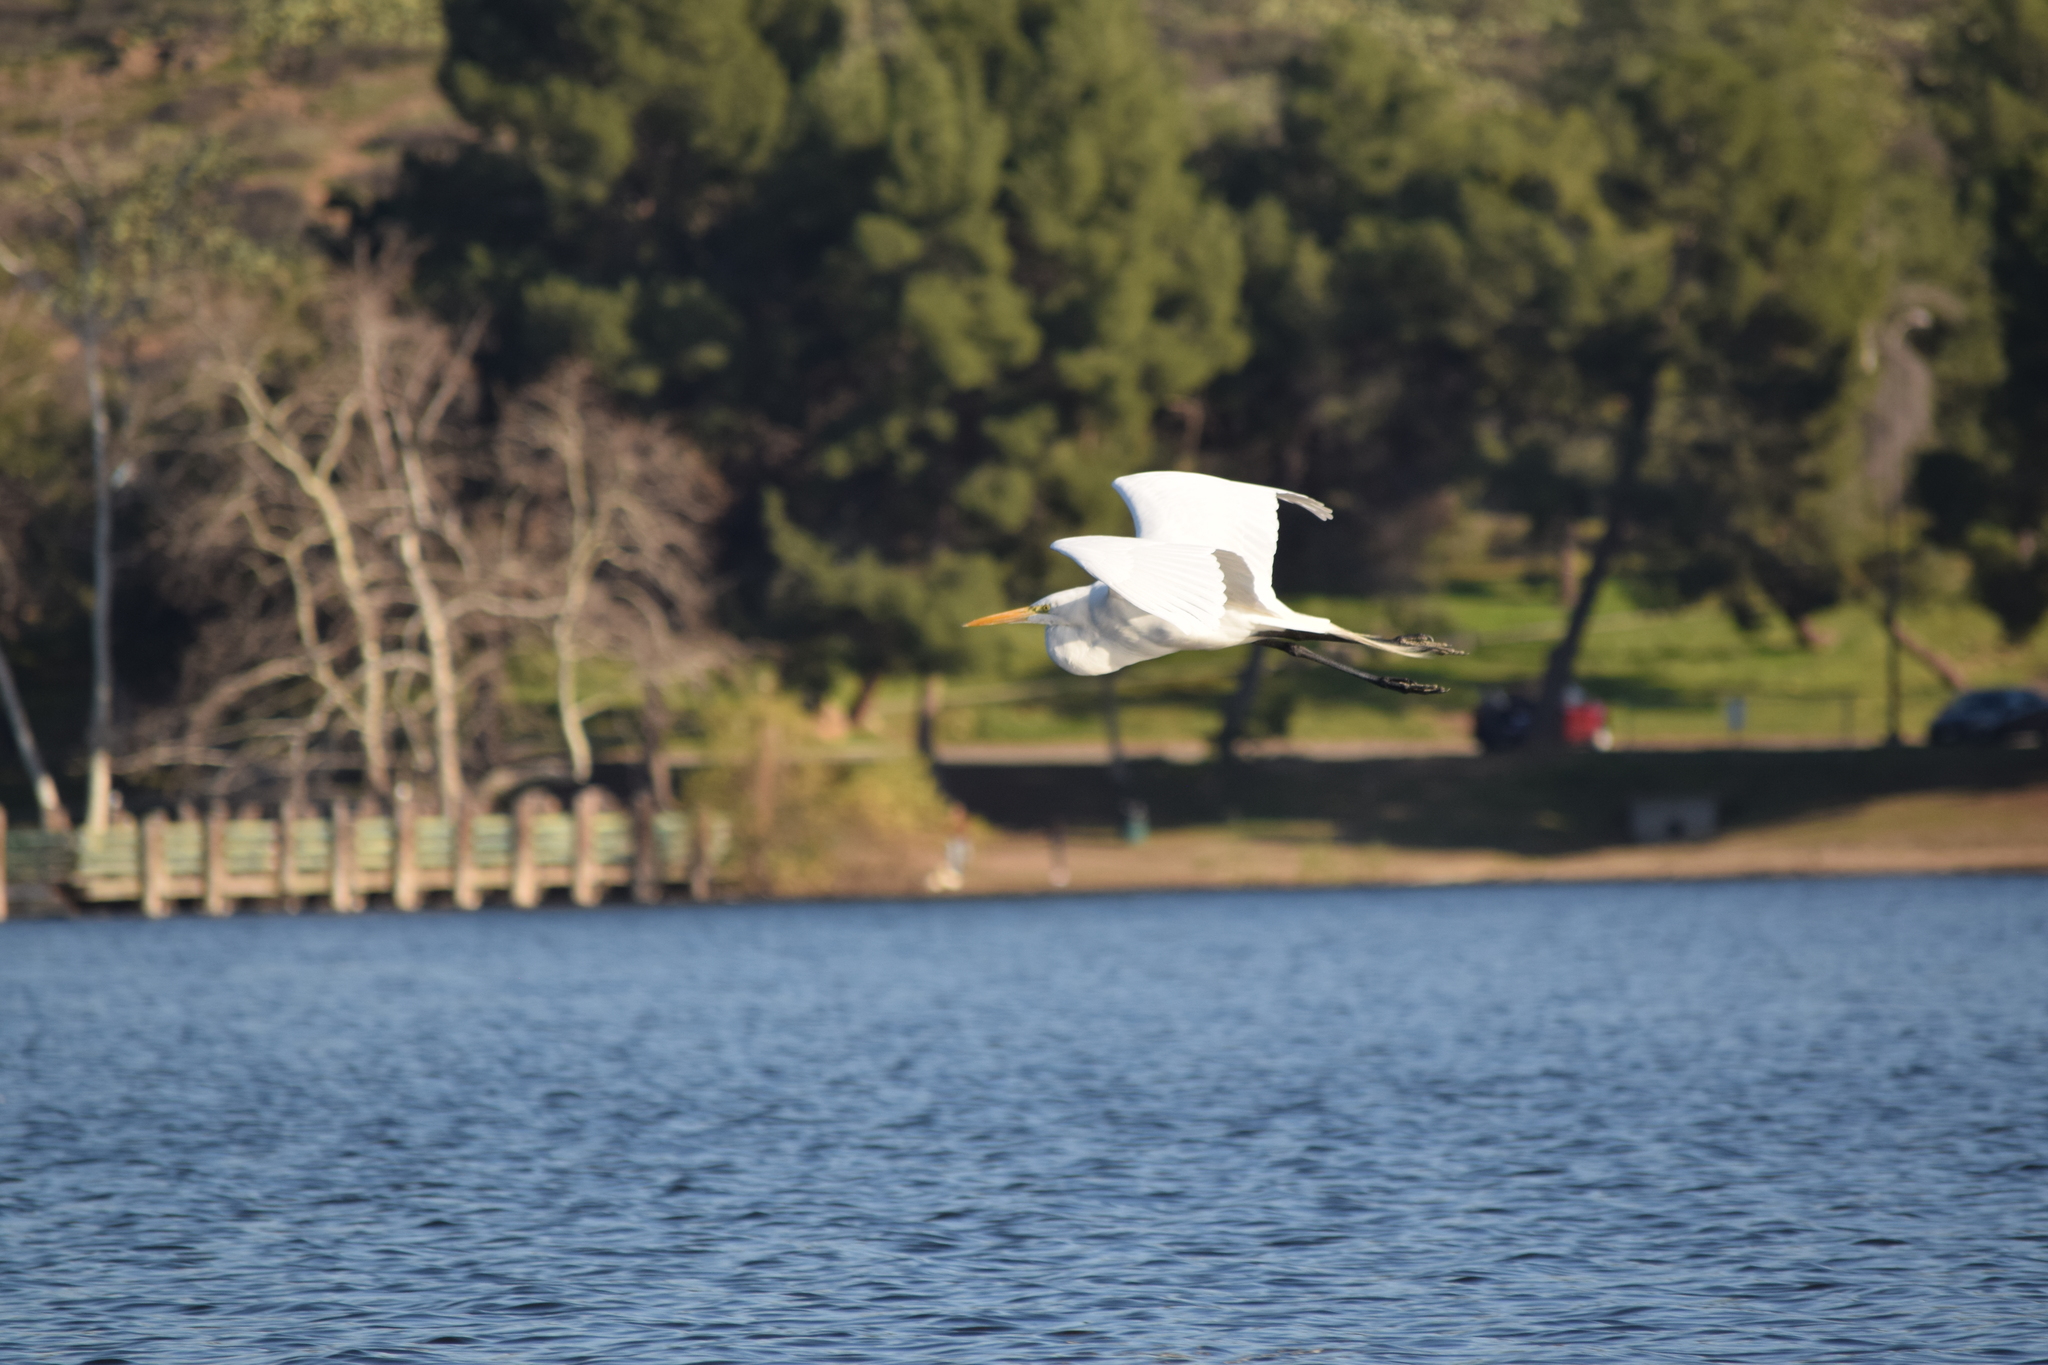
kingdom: Animalia
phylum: Chordata
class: Aves
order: Pelecaniformes
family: Ardeidae
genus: Ardea
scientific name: Ardea alba
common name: Great egret
